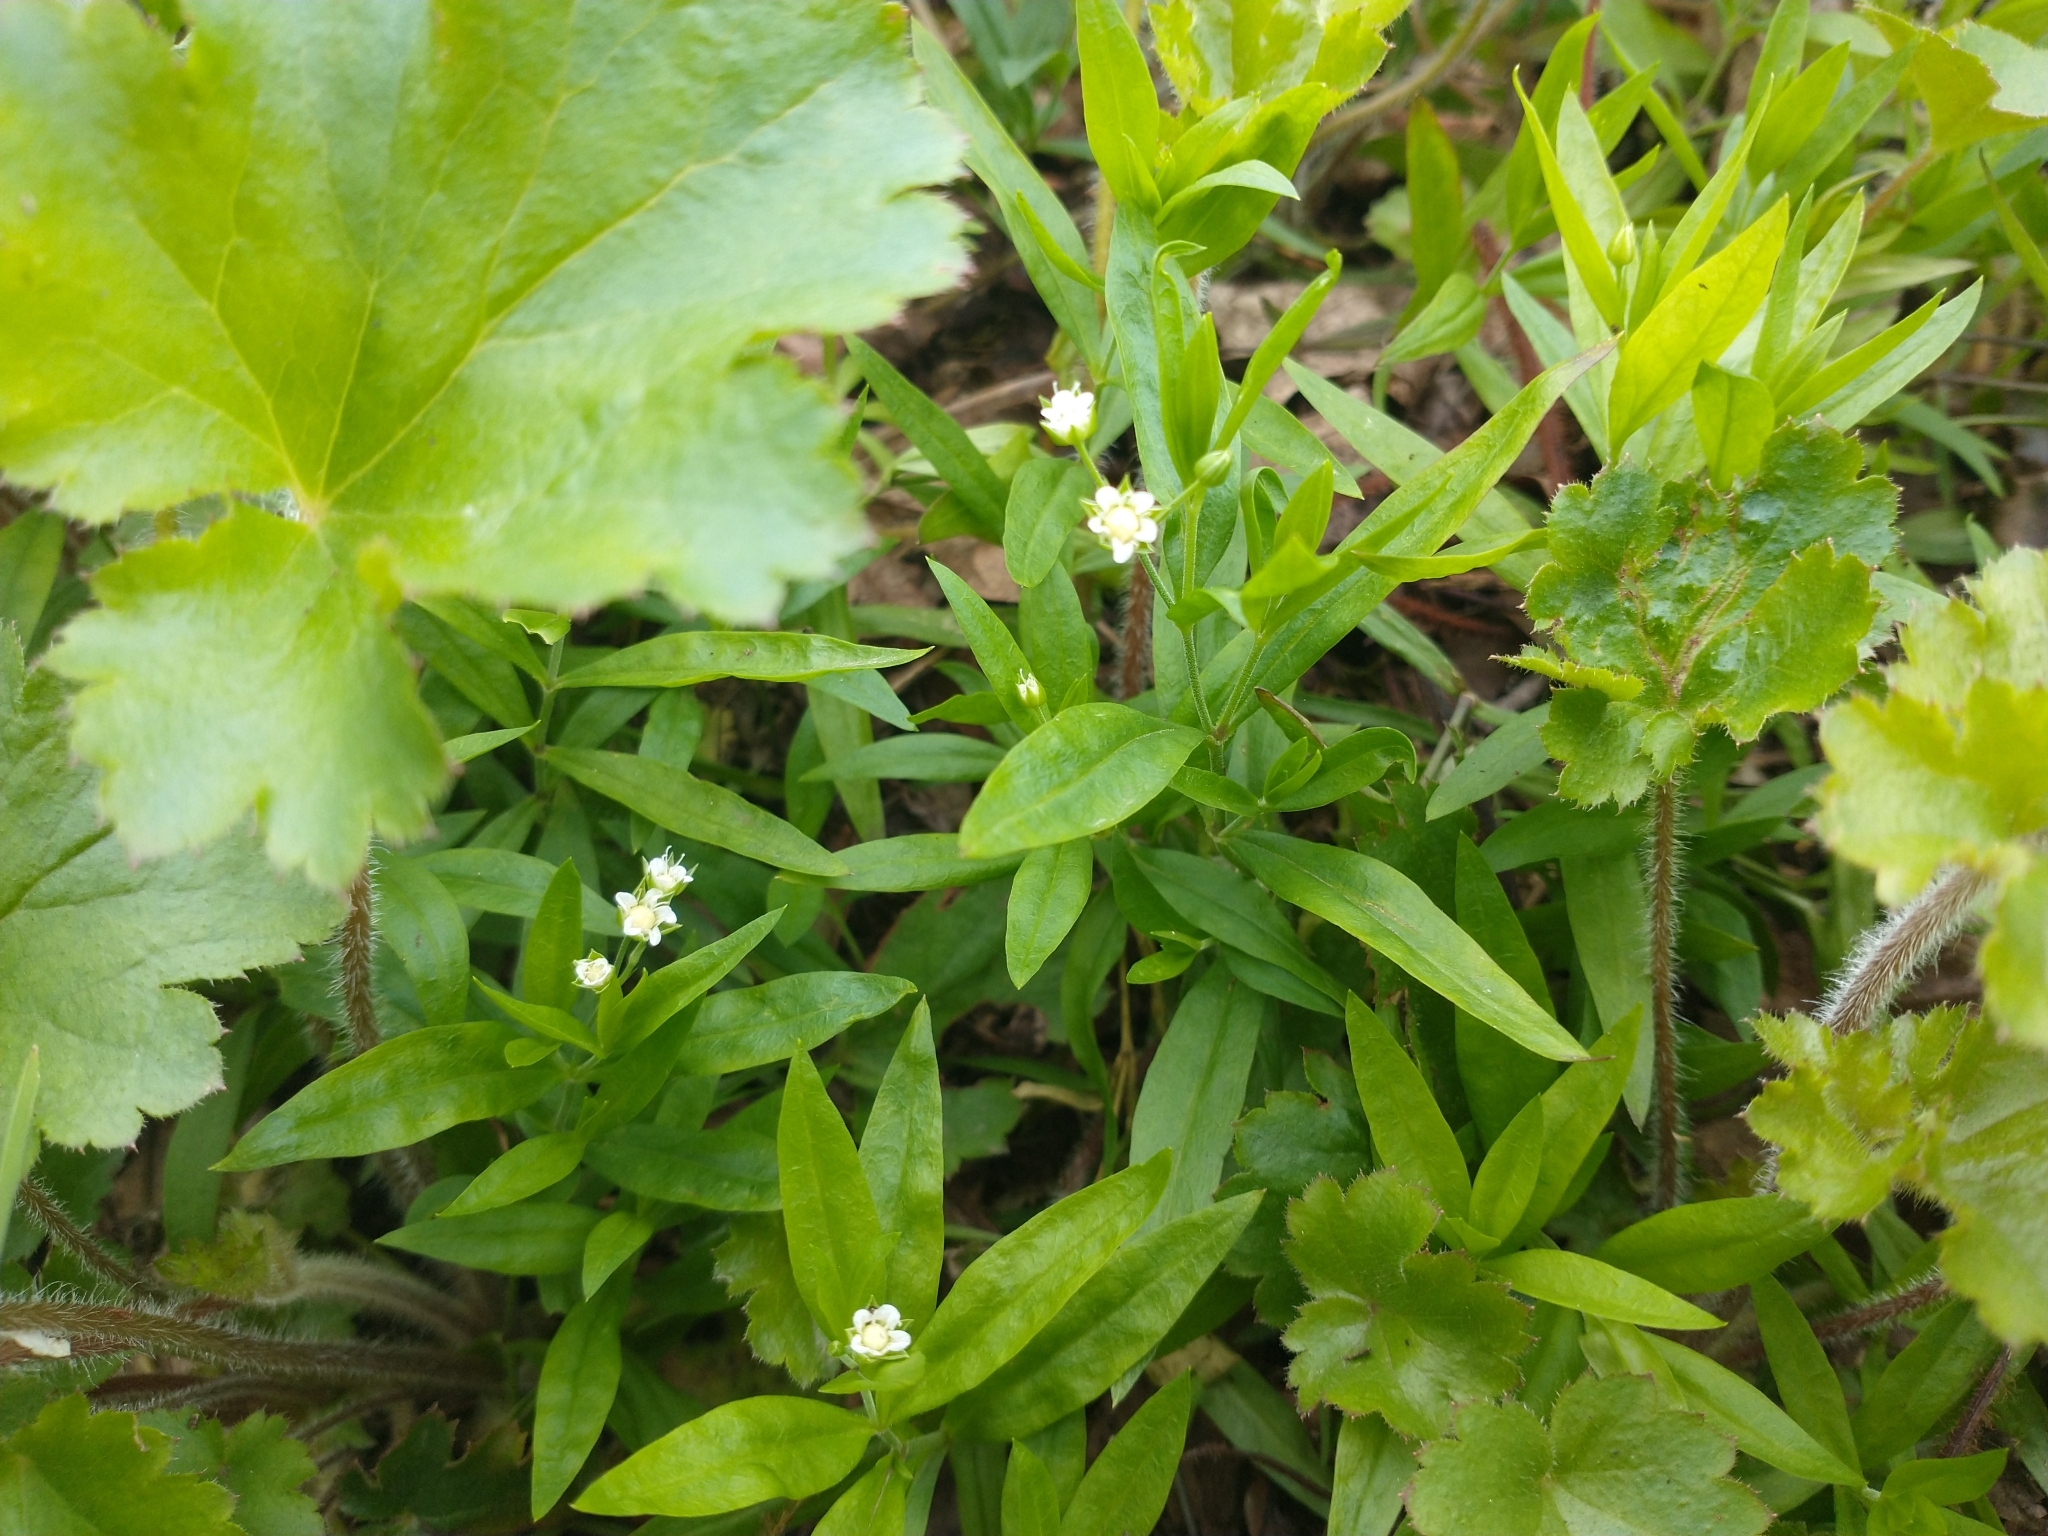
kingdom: Plantae
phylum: Tracheophyta
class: Magnoliopsida
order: Caryophyllales
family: Caryophyllaceae
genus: Moehringia
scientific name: Moehringia macrophylla
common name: Big-leaf sandwort
